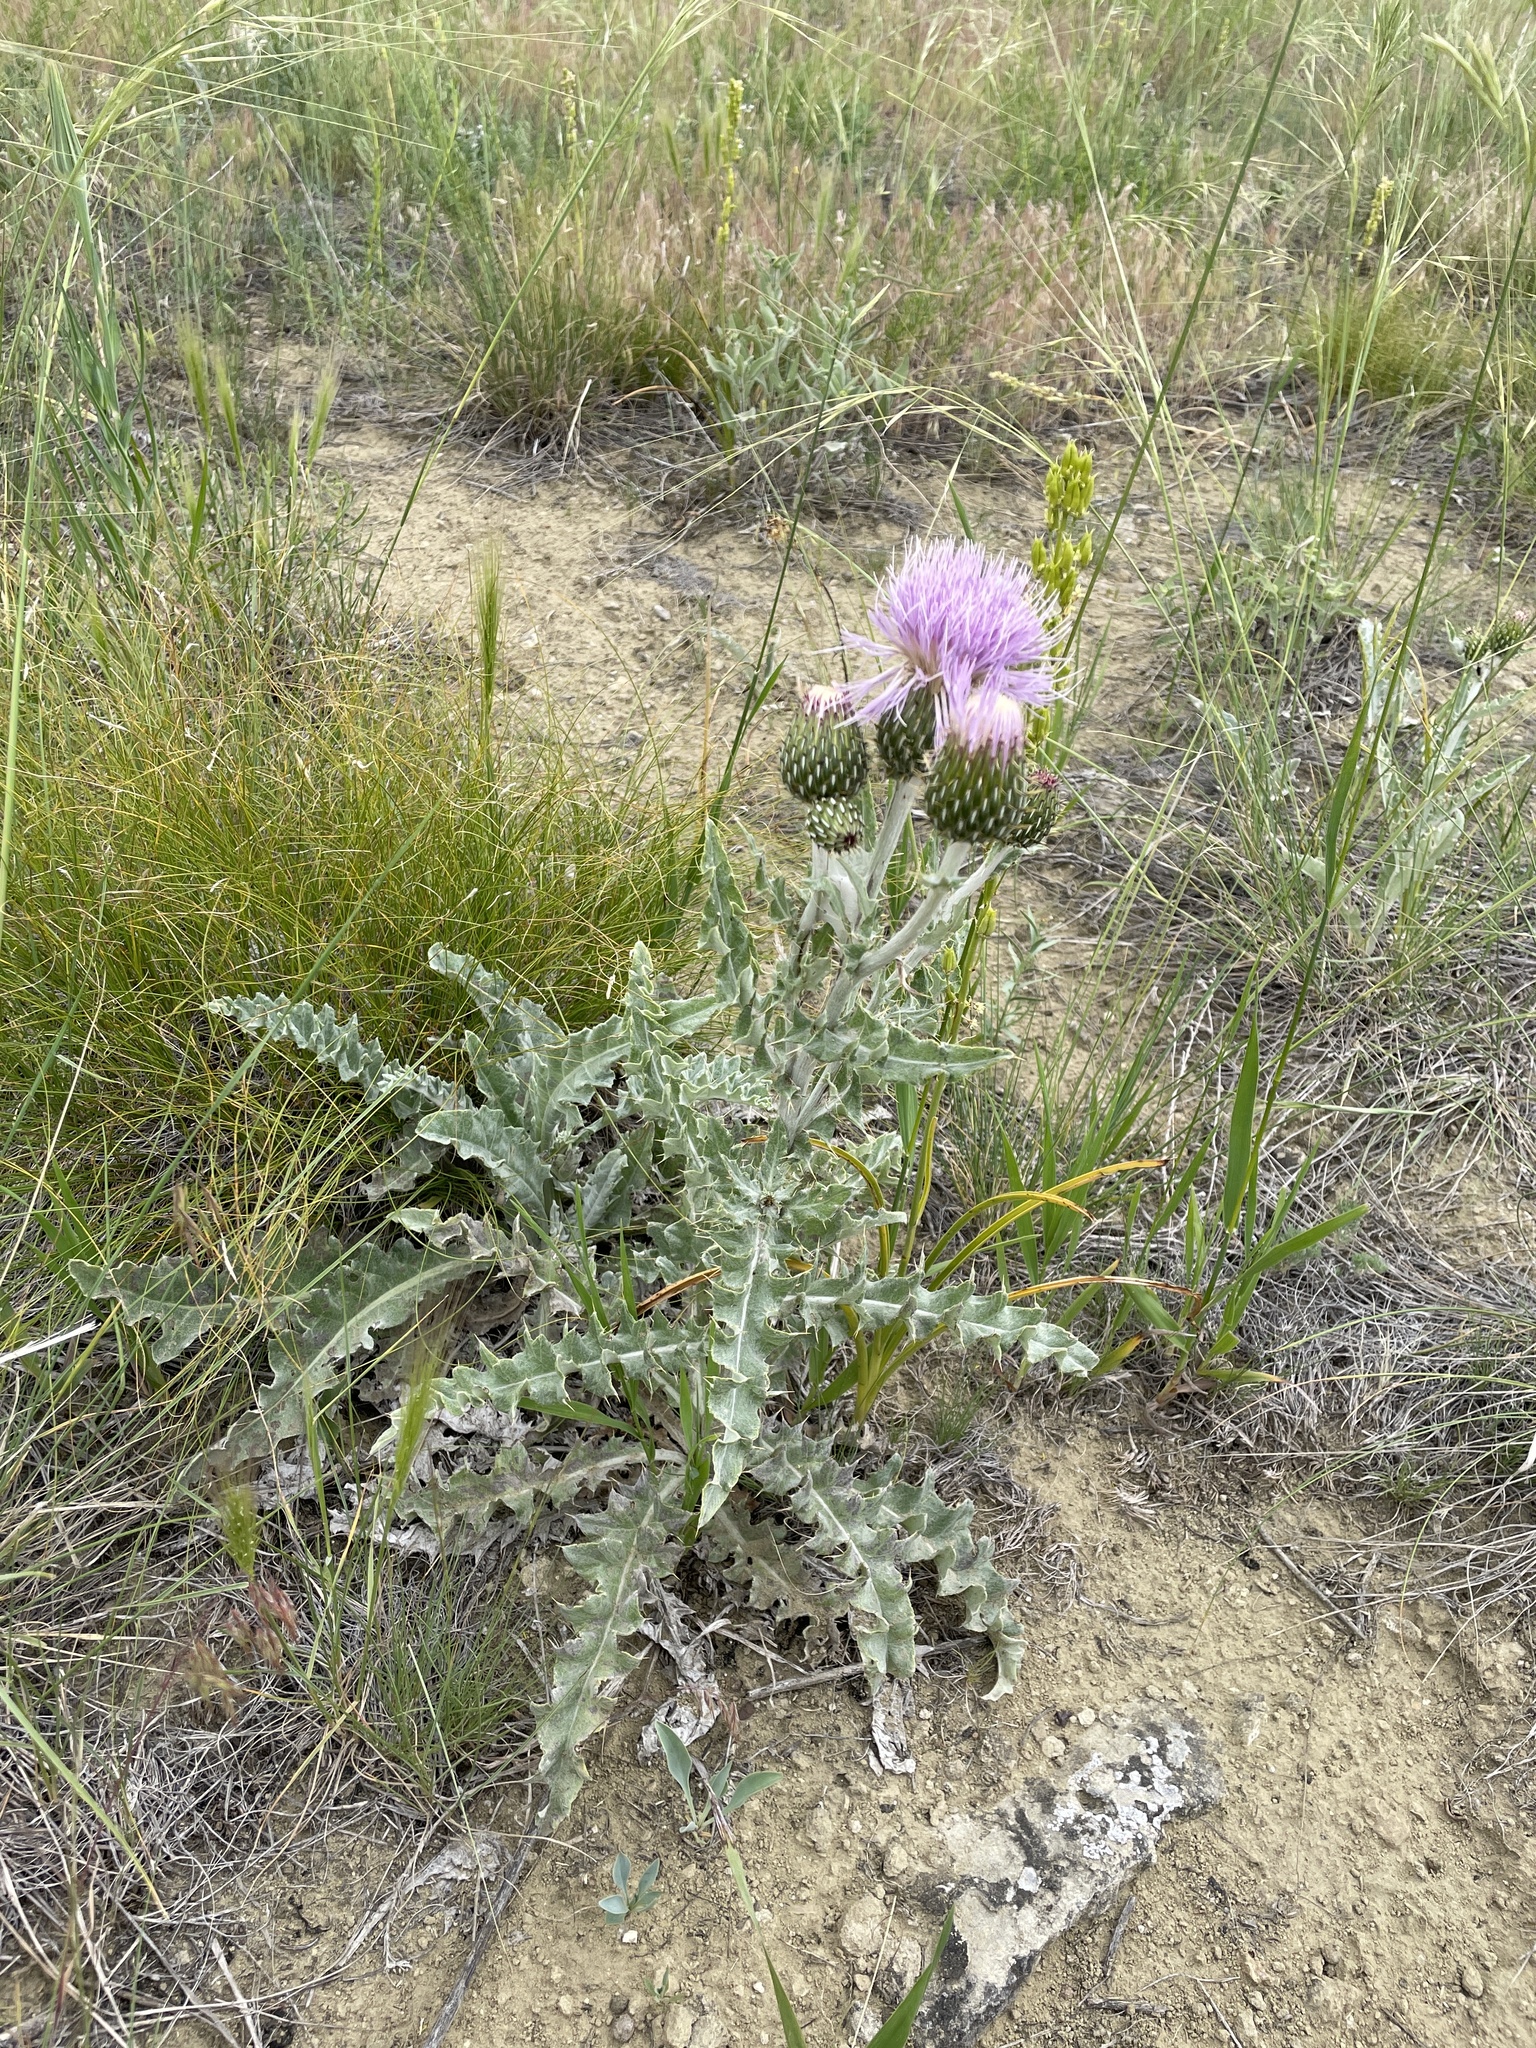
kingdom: Plantae
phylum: Tracheophyta
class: Magnoliopsida
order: Asterales
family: Asteraceae
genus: Cirsium
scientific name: Cirsium undulatum
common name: Pasture thistle
